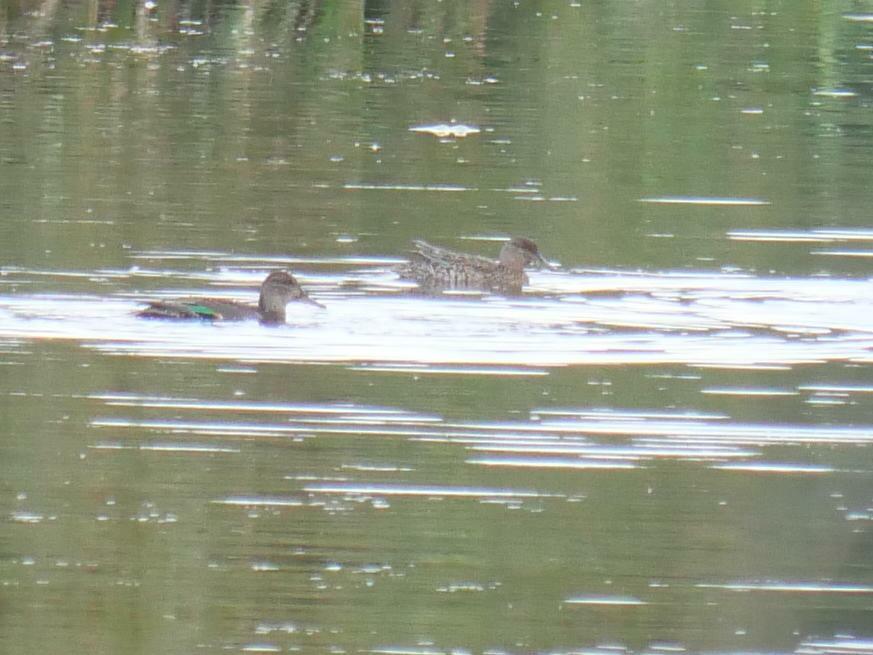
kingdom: Animalia
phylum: Chordata
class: Aves
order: Anseriformes
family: Anatidae
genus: Anas
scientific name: Anas crecca
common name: Eurasian teal
